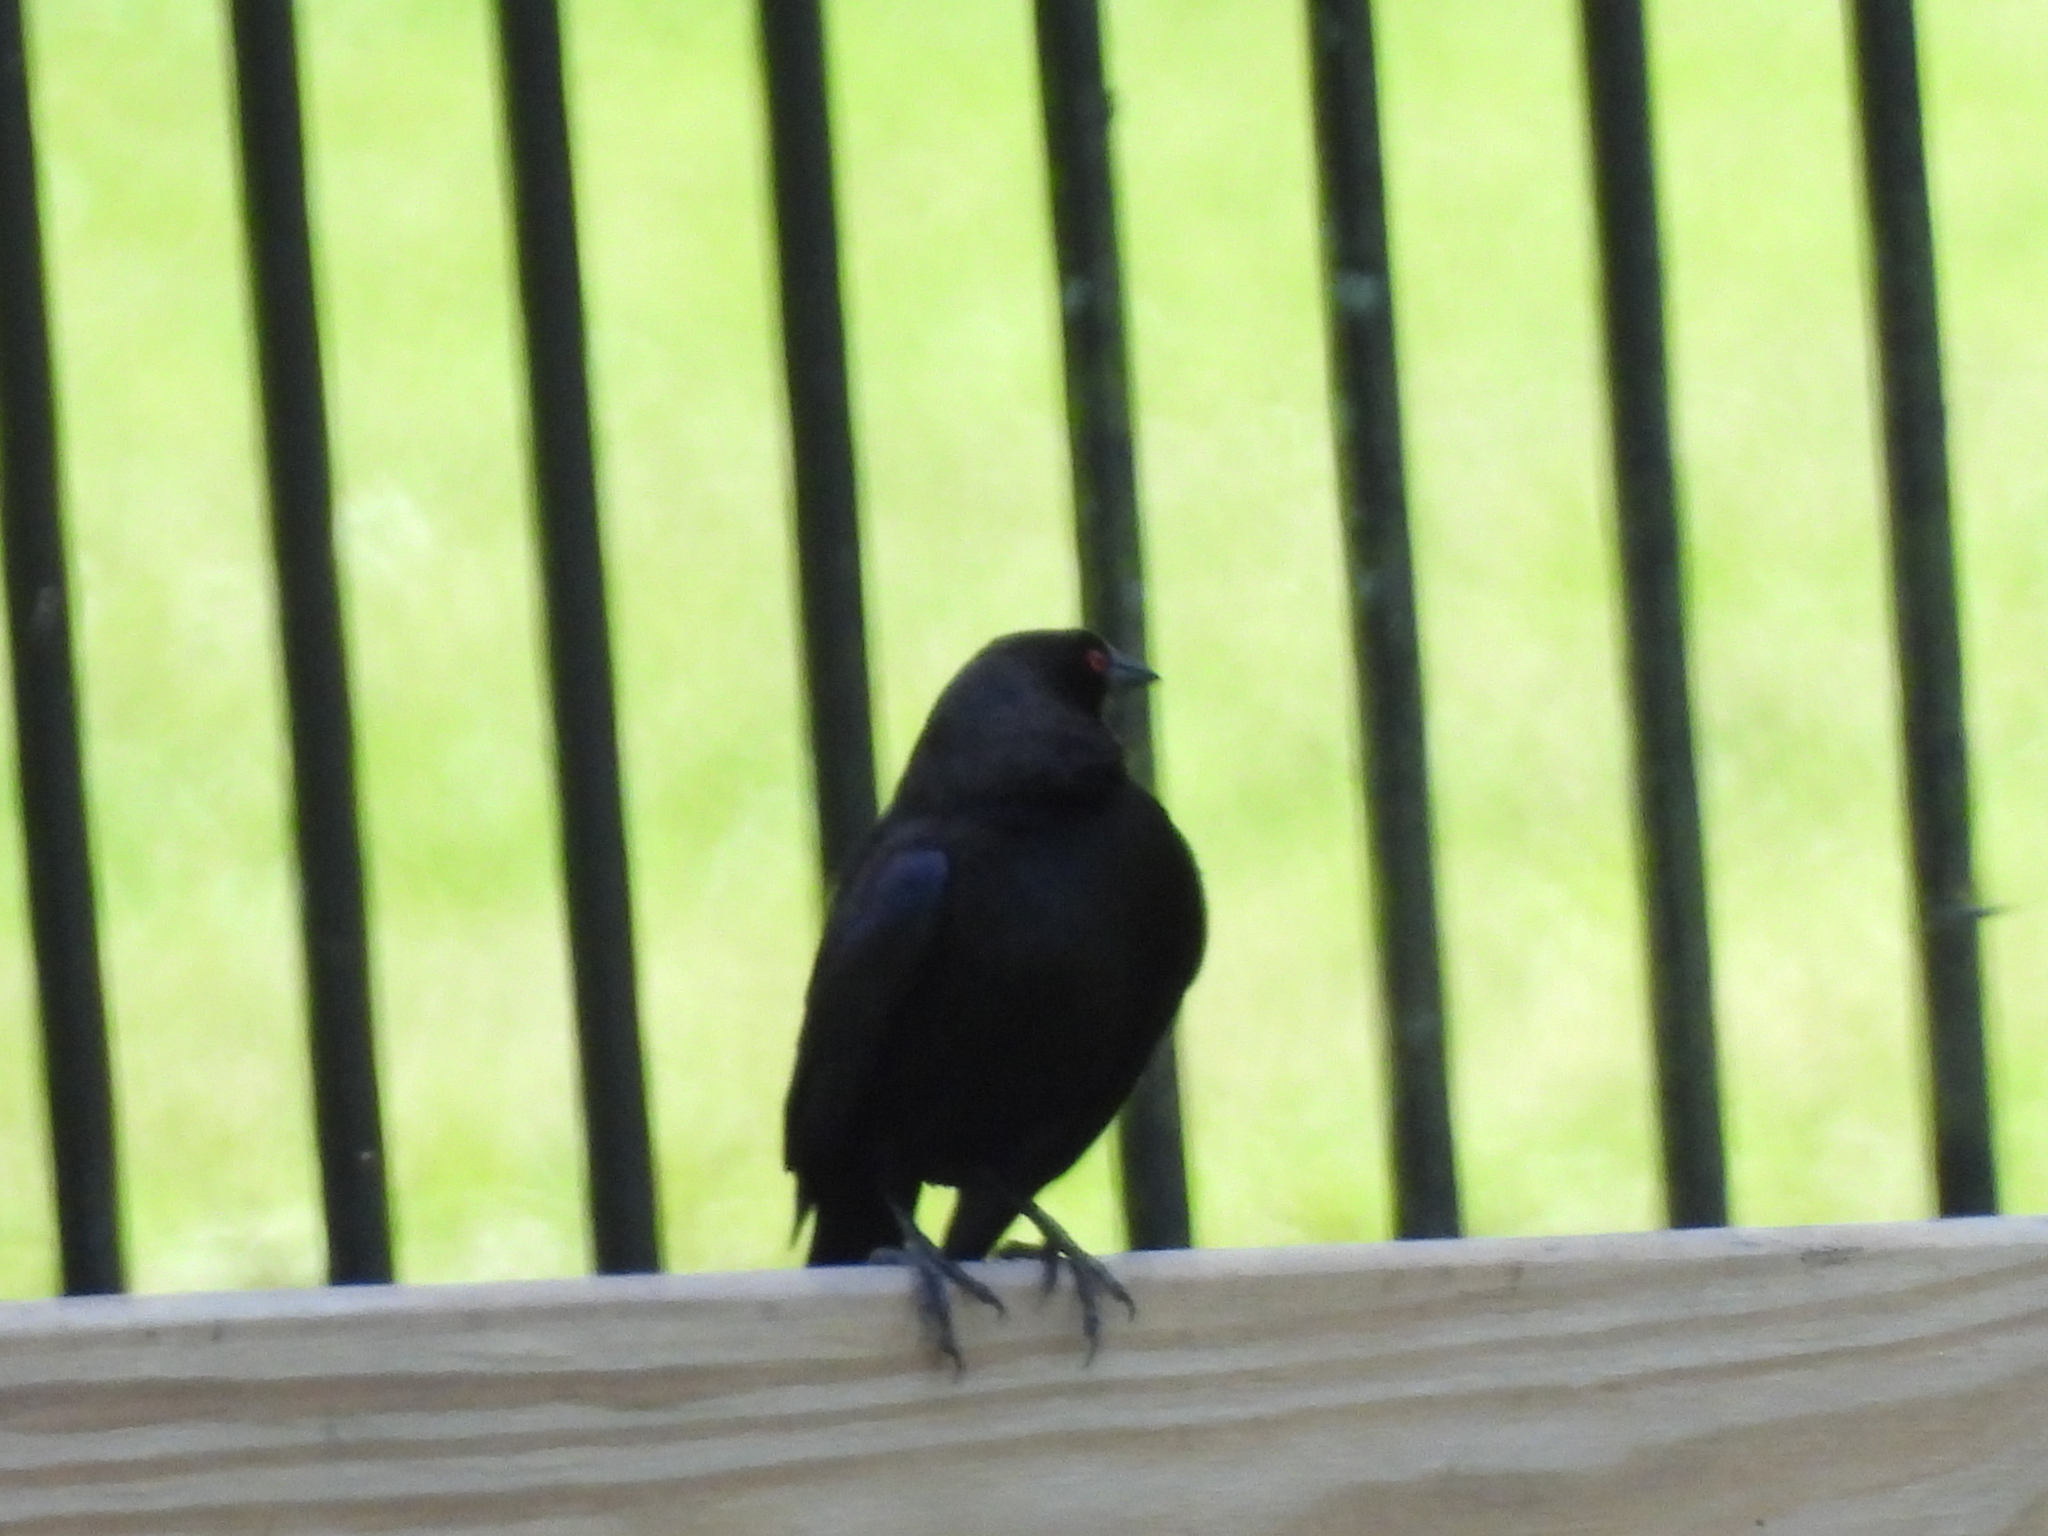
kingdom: Animalia
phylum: Chordata
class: Aves
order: Passeriformes
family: Icteridae
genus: Molothrus
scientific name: Molothrus aeneus
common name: Bronzed cowbird
